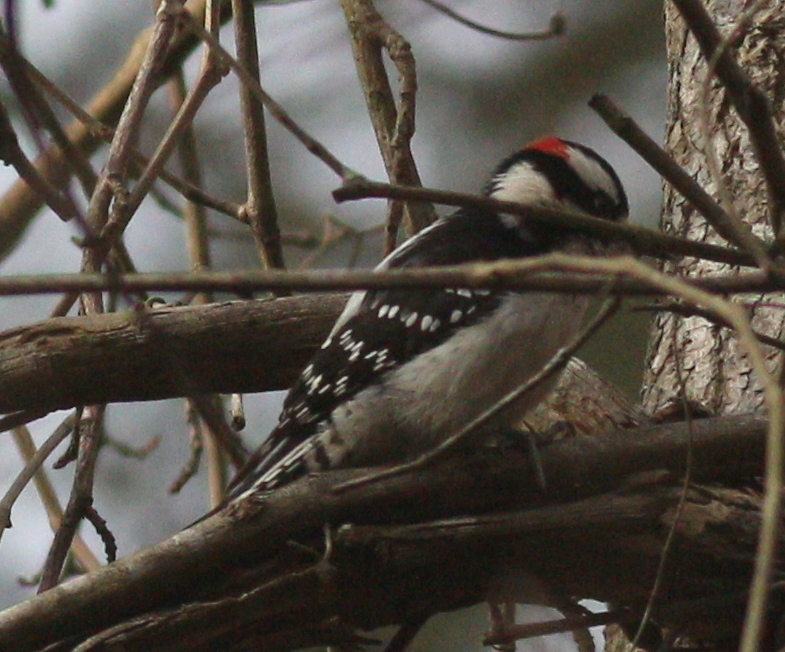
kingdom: Animalia
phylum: Chordata
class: Aves
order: Piciformes
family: Picidae
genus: Dryobates
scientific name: Dryobates pubescens
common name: Downy woodpecker
